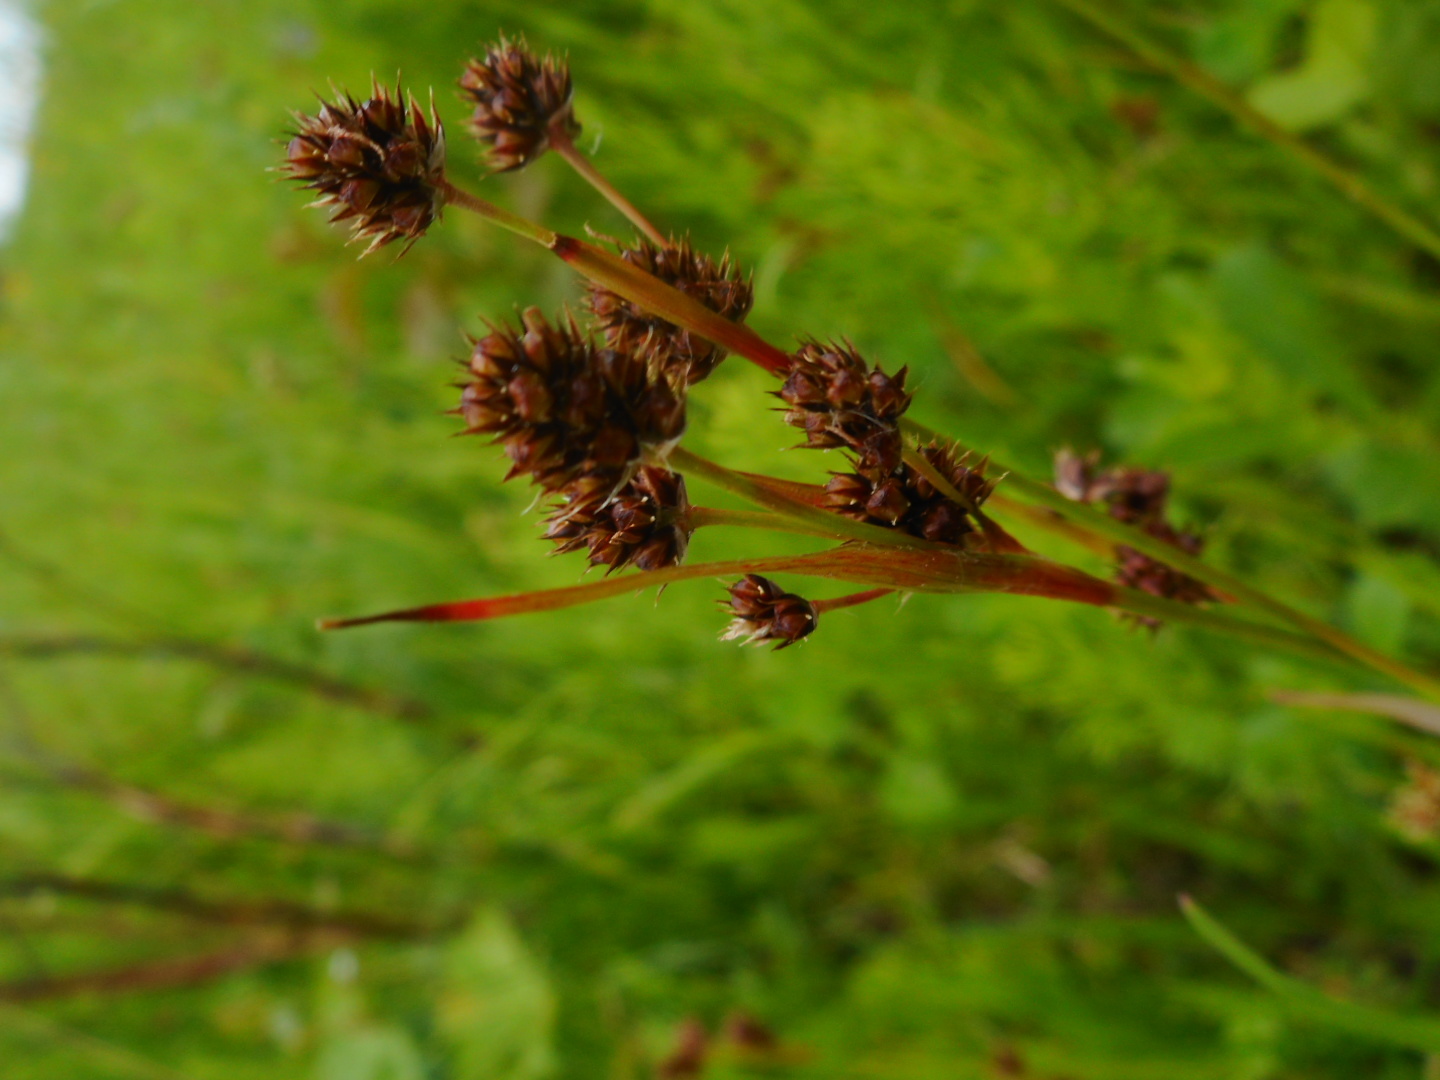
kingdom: Plantae
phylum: Tracheophyta
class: Liliopsida
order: Poales
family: Juncaceae
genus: Luzula
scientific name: Luzula multiflora
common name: Heath wood-rush
